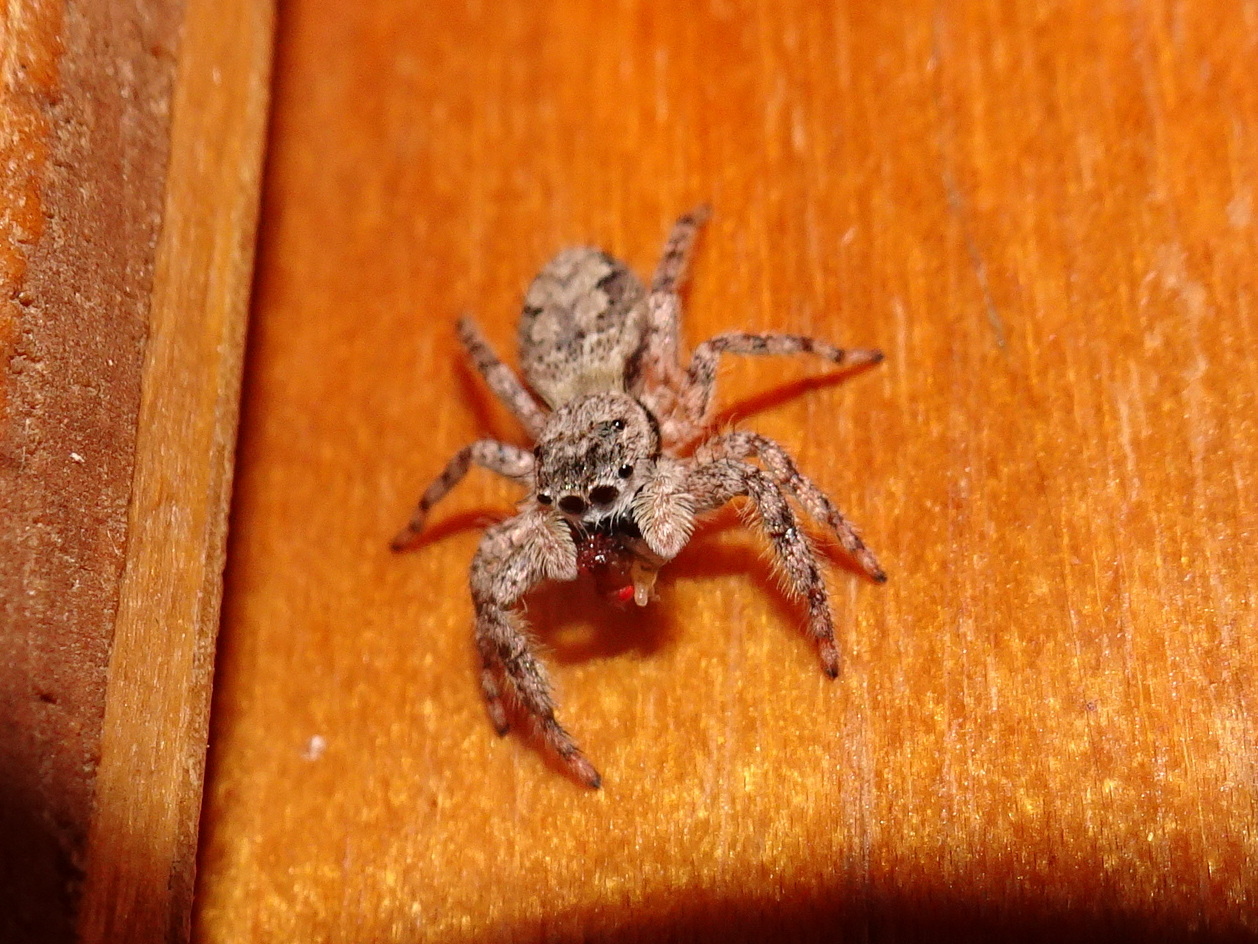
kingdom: Animalia
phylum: Arthropoda
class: Arachnida
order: Araneae
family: Salticidae
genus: Platycryptus
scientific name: Platycryptus undatus
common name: Tan jumping spider
